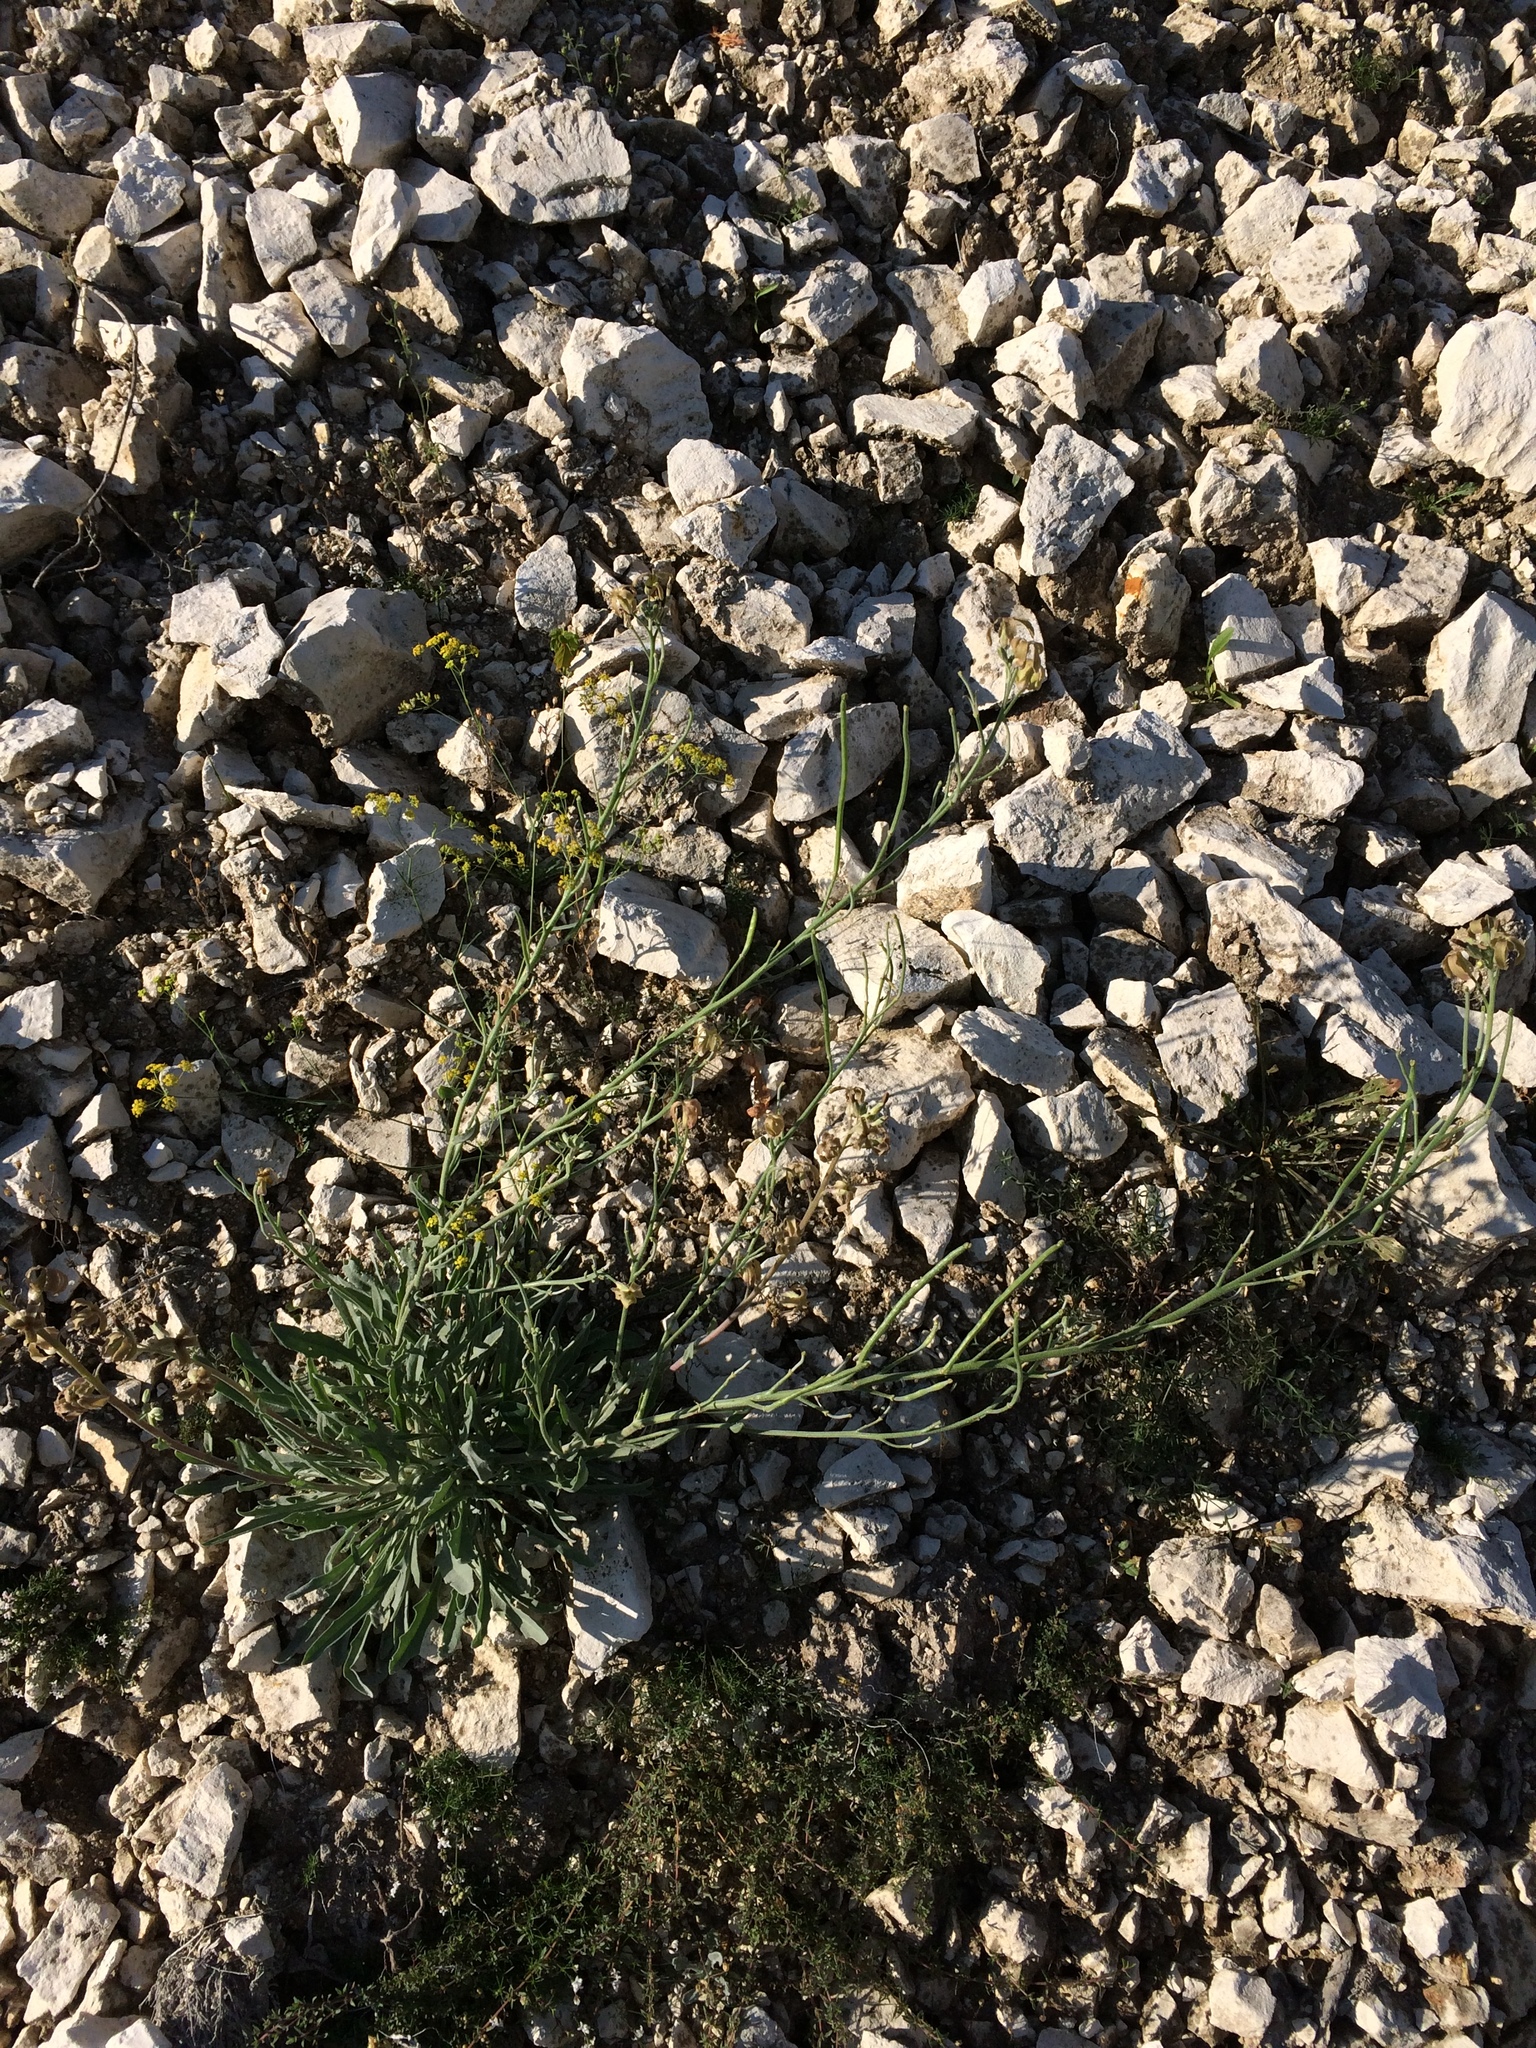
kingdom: Plantae
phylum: Tracheophyta
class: Magnoliopsida
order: Brassicales
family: Brassicaceae
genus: Matthiola
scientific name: Matthiola fragrans
